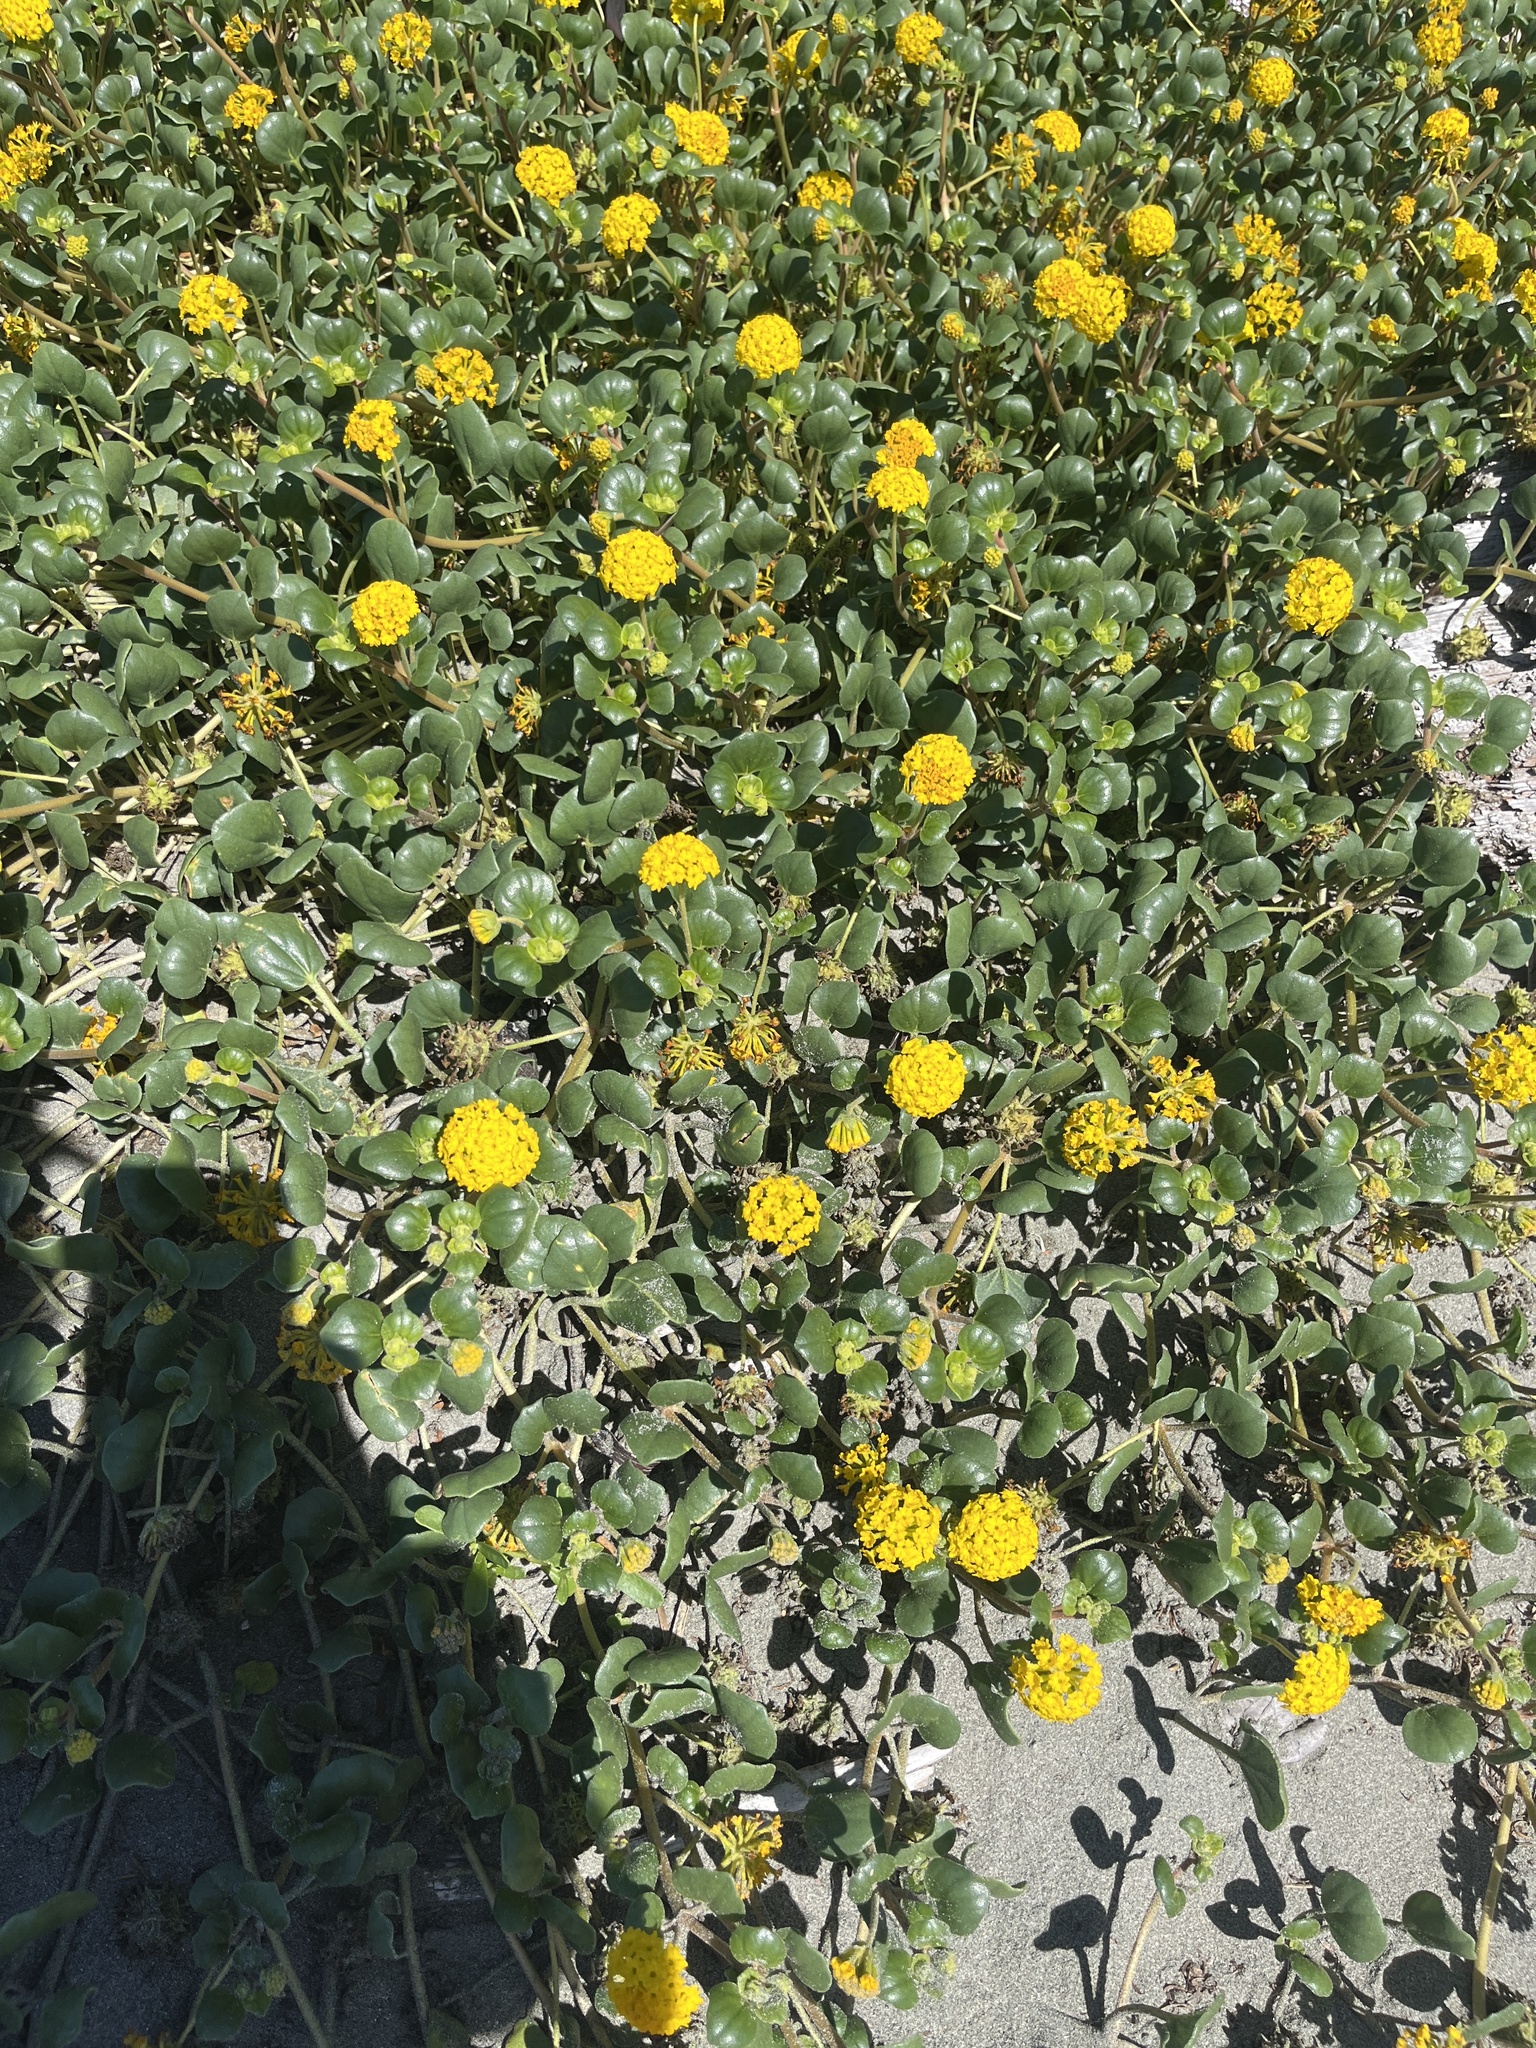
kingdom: Plantae
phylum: Tracheophyta
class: Magnoliopsida
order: Caryophyllales
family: Nyctaginaceae
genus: Abronia
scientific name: Abronia latifolia
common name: Yellow sand-verbena
